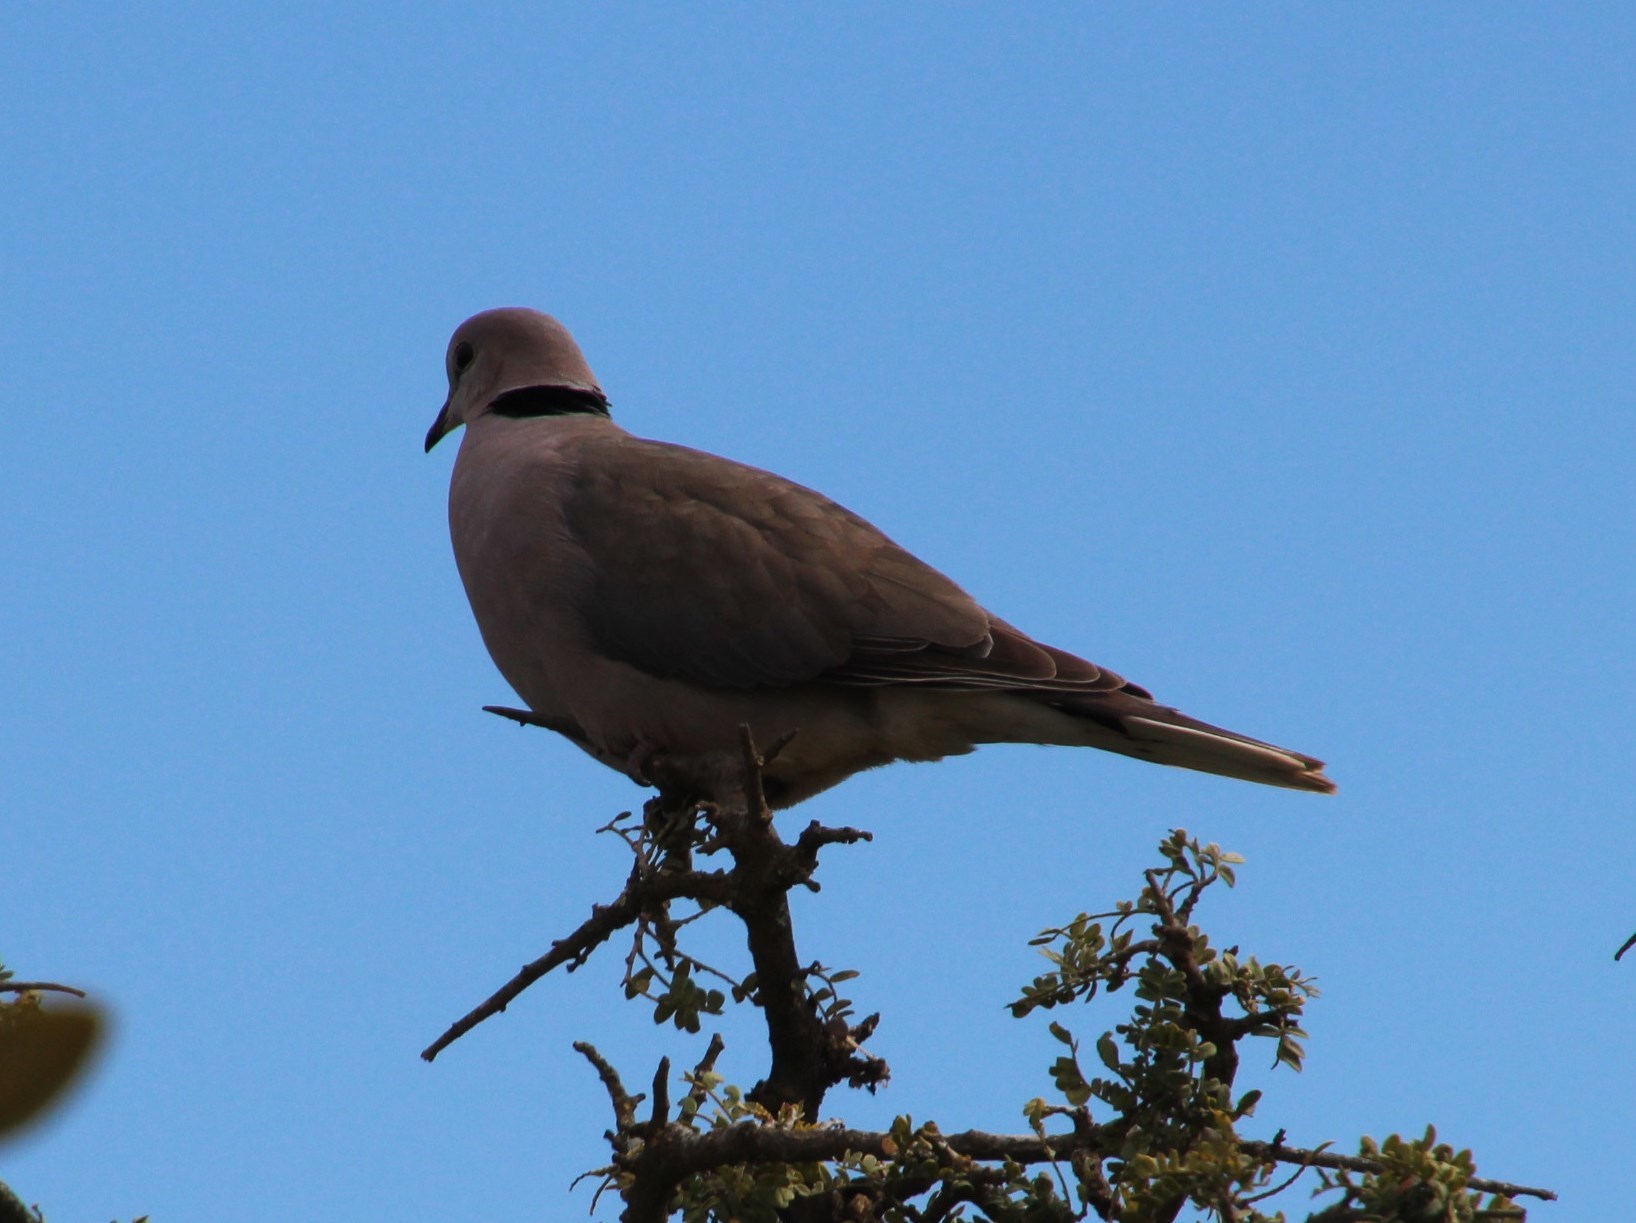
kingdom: Animalia
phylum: Chordata
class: Aves
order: Columbiformes
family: Columbidae
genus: Streptopelia
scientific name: Streptopelia capicola
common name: Ring-necked dove
